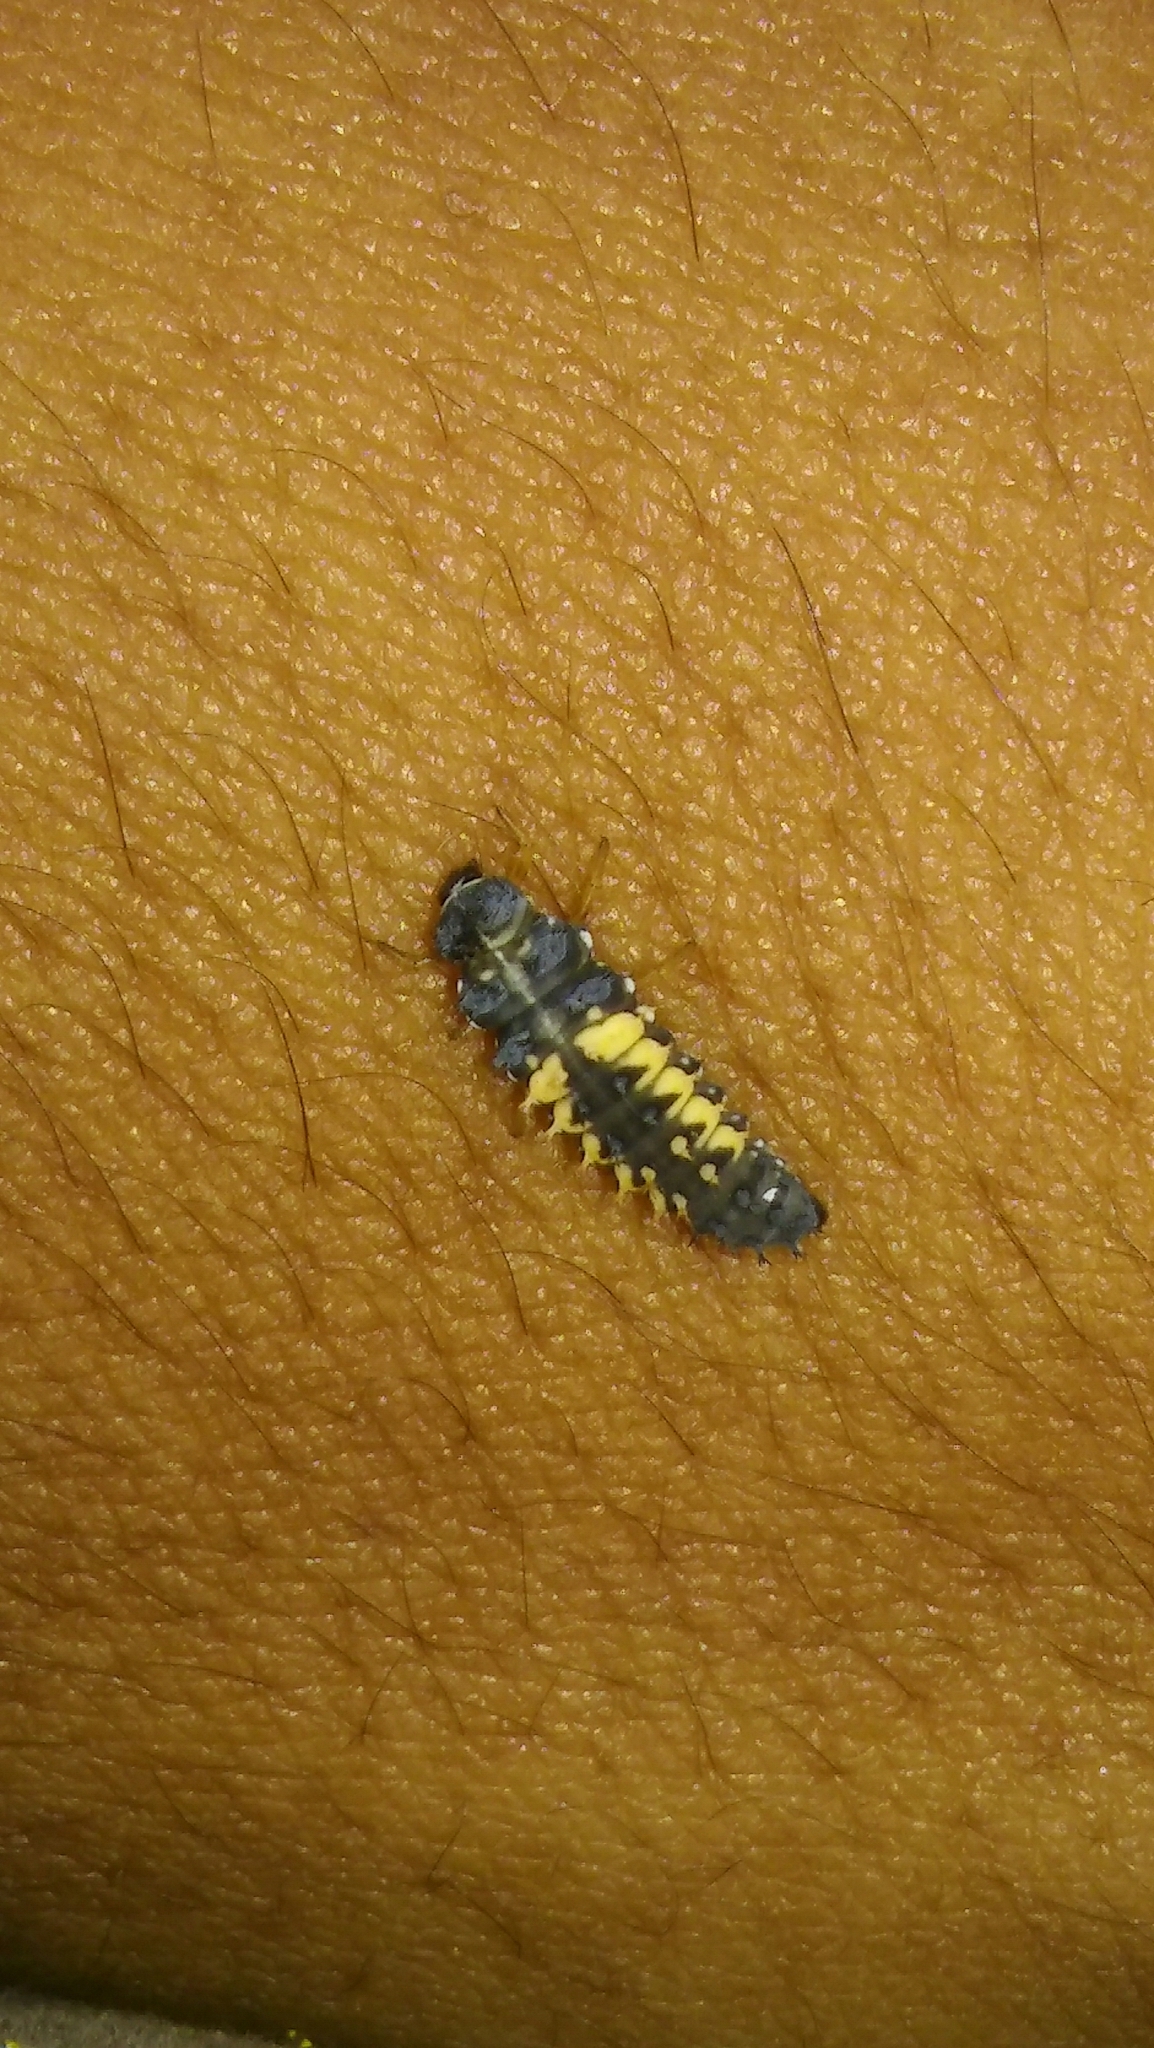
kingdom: Animalia
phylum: Arthropoda
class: Insecta
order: Coleoptera
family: Coccinellidae
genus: Harmonia
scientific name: Harmonia axyridis
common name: Harlequin ladybird
